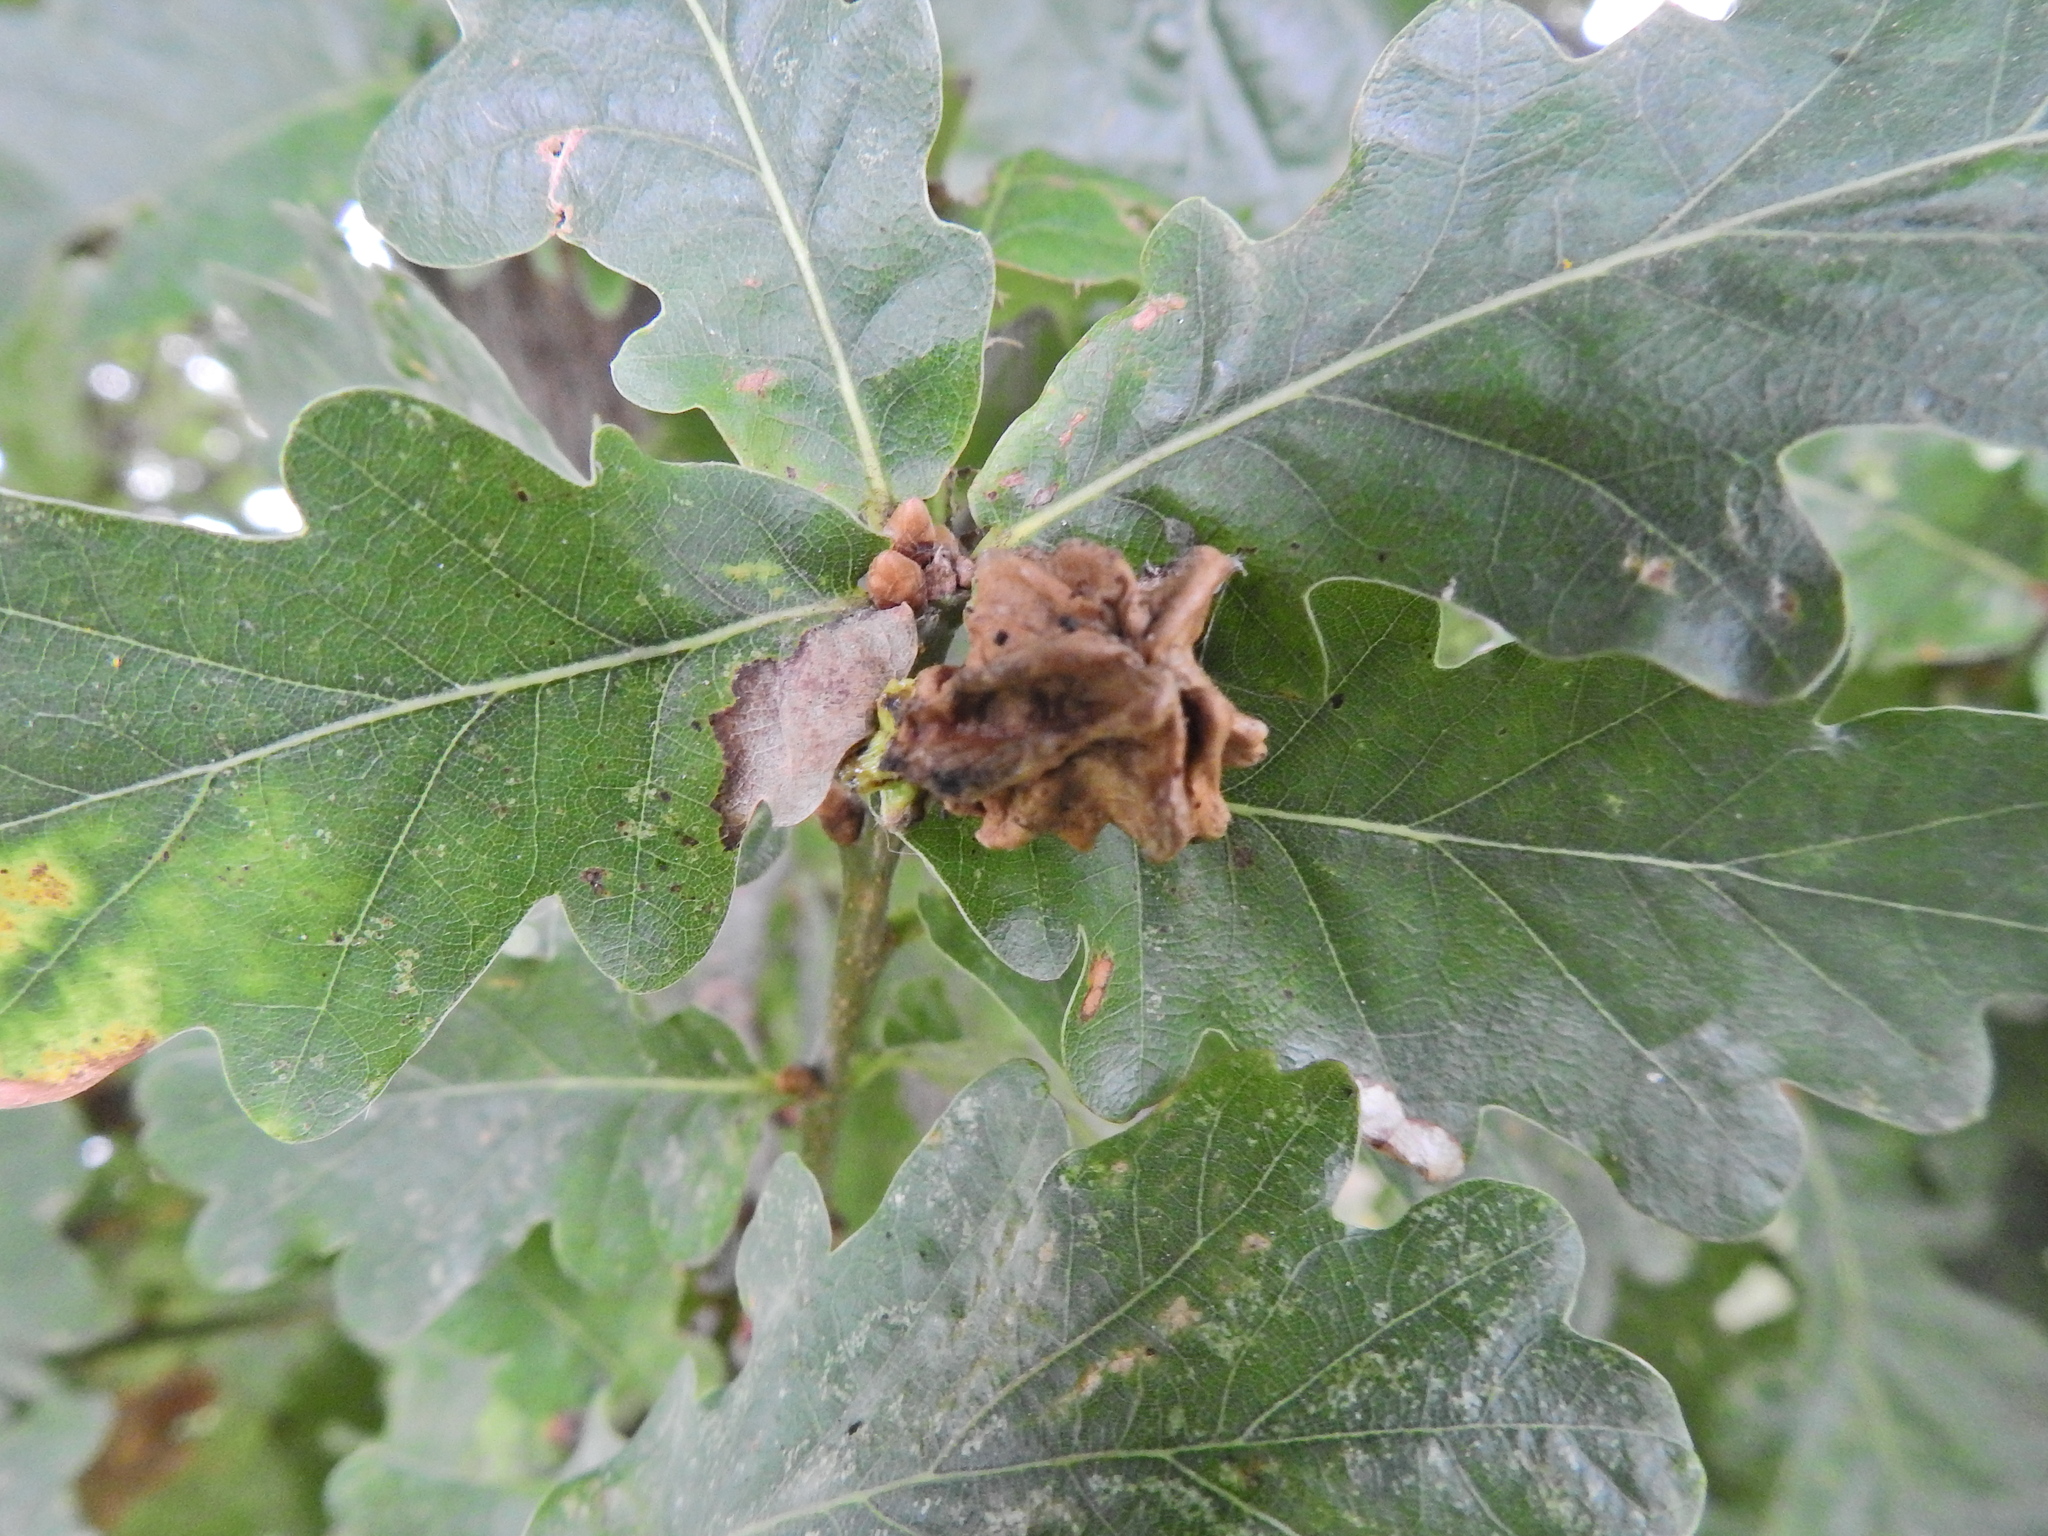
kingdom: Animalia
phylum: Arthropoda
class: Insecta
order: Hymenoptera
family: Cynipidae
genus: Andricus
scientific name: Andricus quercuscalicis
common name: Knopper gall
